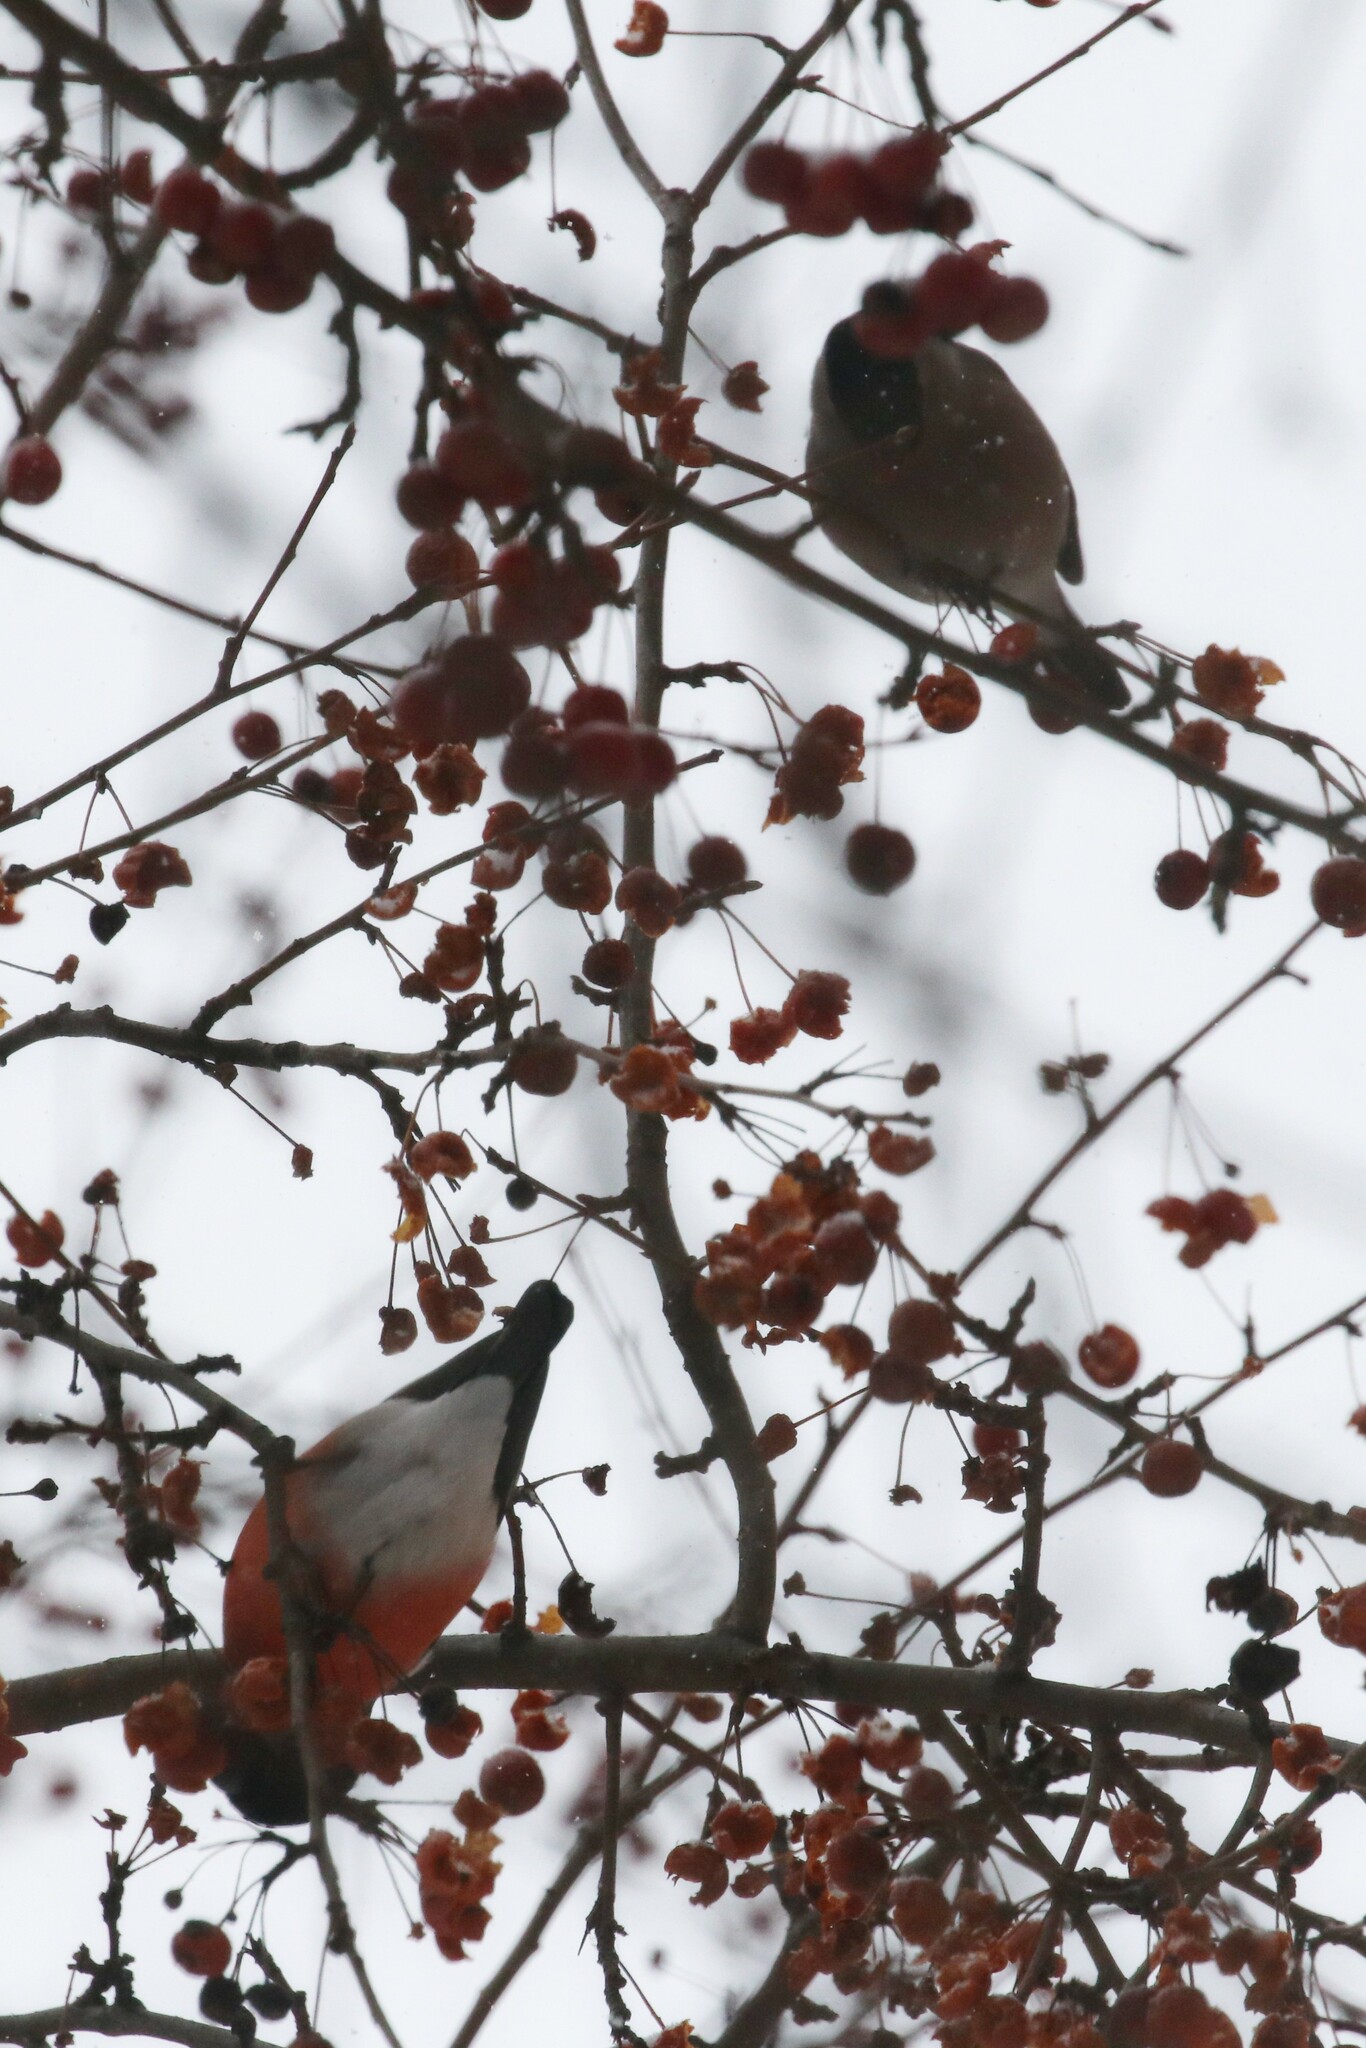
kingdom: Animalia
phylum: Chordata
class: Aves
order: Passeriformes
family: Fringillidae
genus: Pyrrhula
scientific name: Pyrrhula pyrrhula
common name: Eurasian bullfinch
